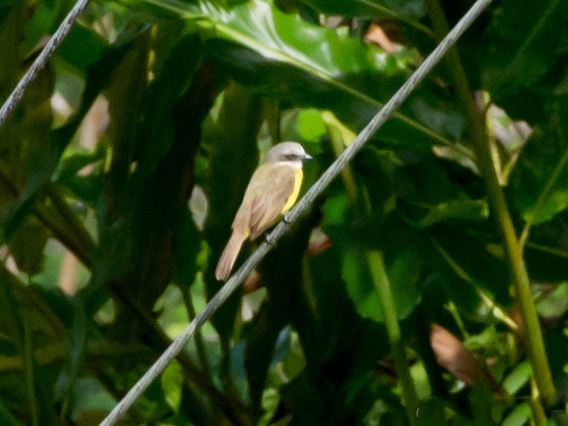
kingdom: Animalia
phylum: Chordata
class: Aves
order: Passeriformes
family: Tyrannidae
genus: Myiozetetes
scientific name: Myiozetetes granadensis
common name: Gray-capped flycatcher
